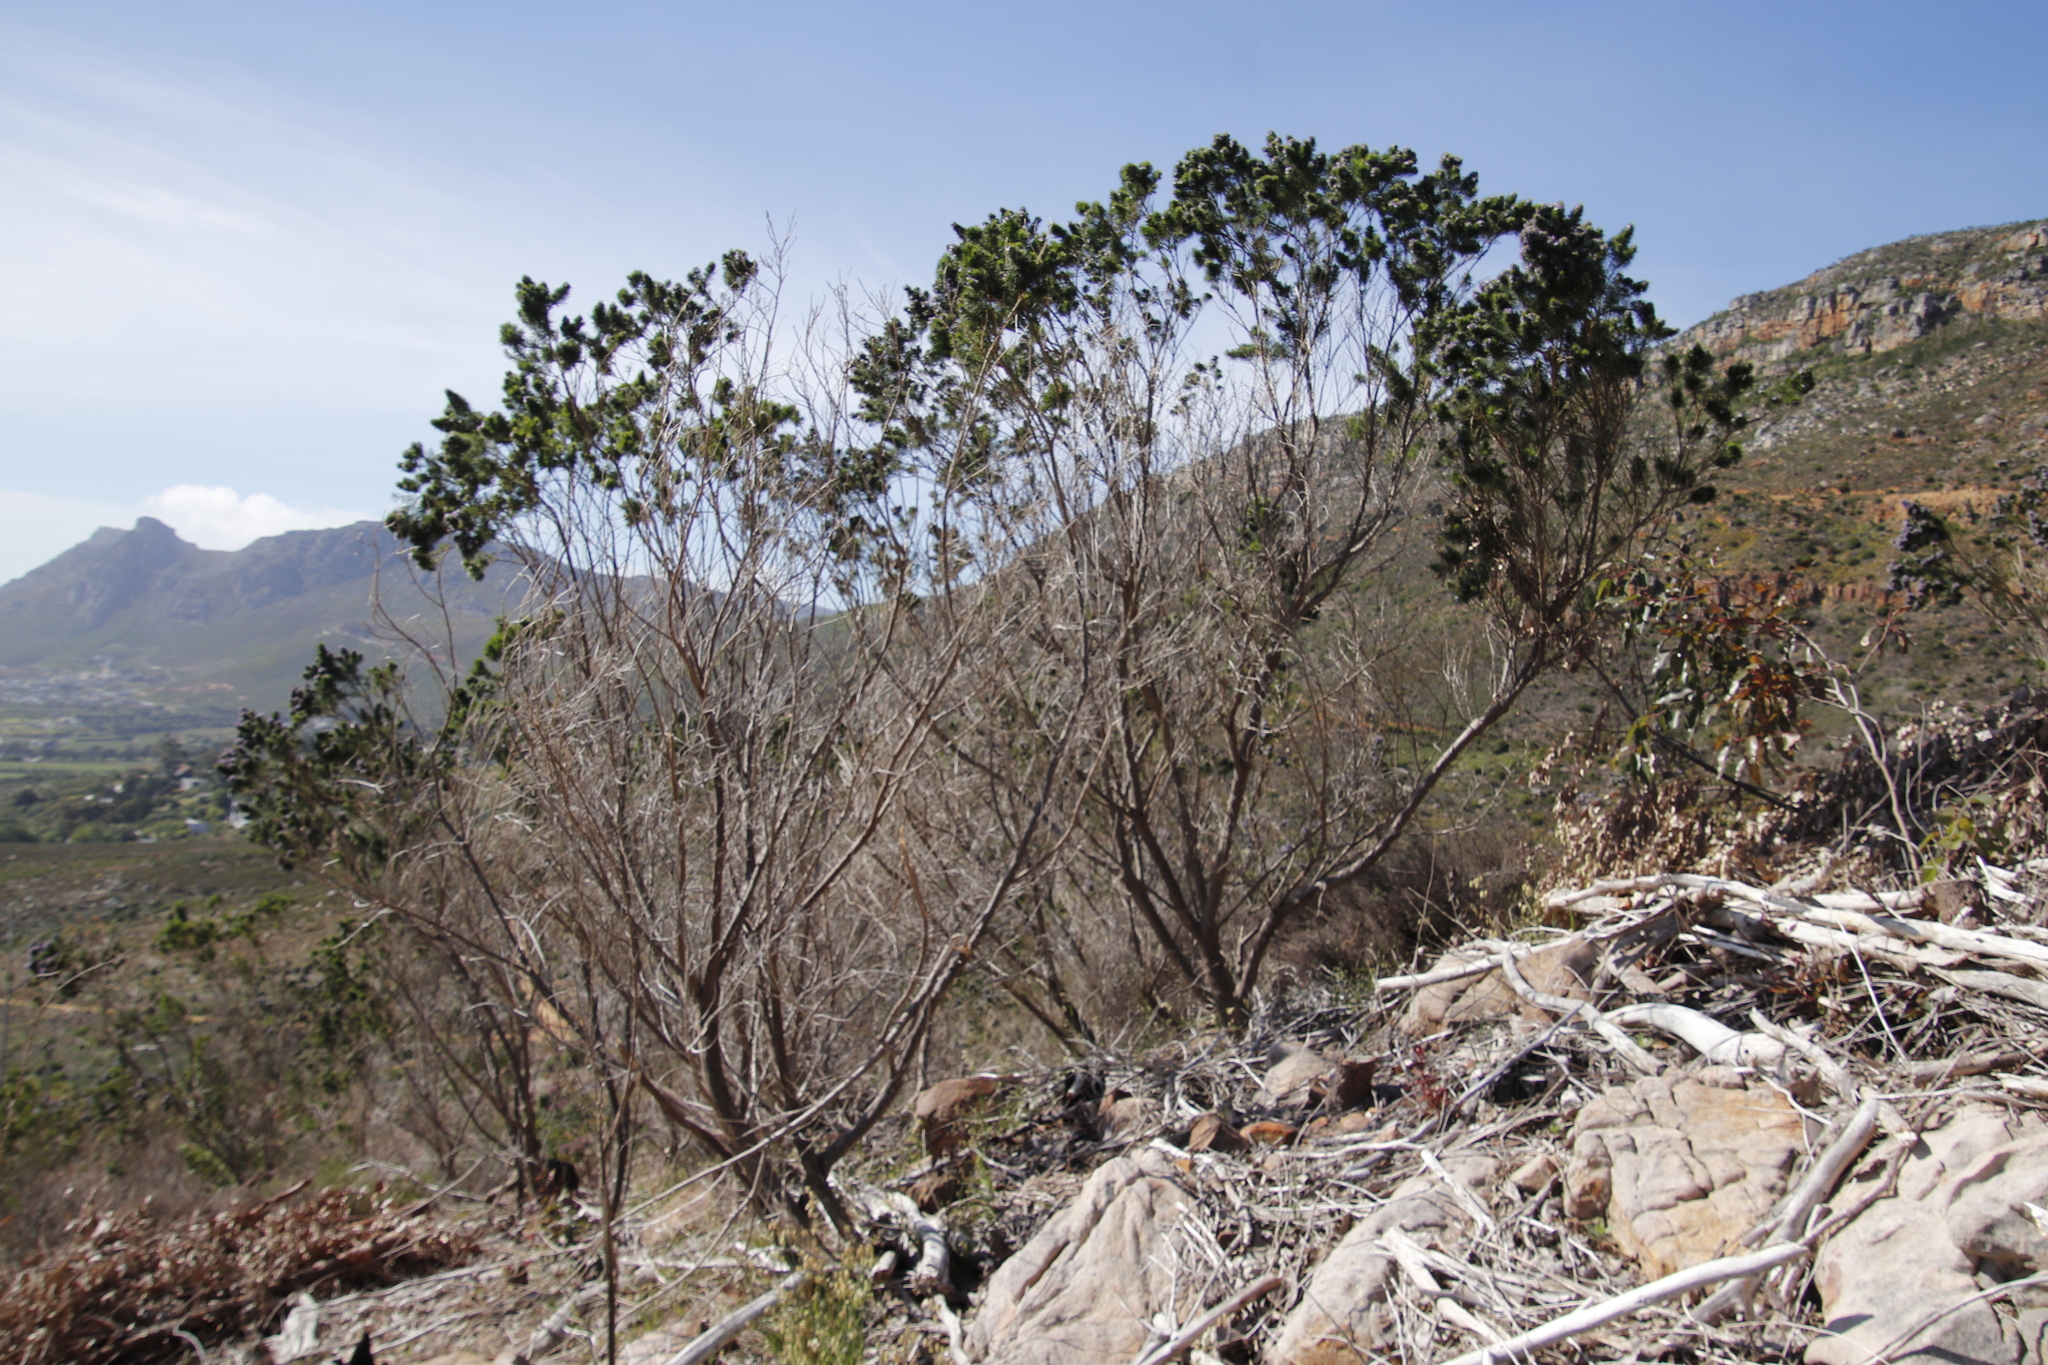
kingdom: Plantae
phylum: Tracheophyta
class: Magnoliopsida
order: Fabales
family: Fabaceae
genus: Psoralea
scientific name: Psoralea pinnata
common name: African scurfpea
